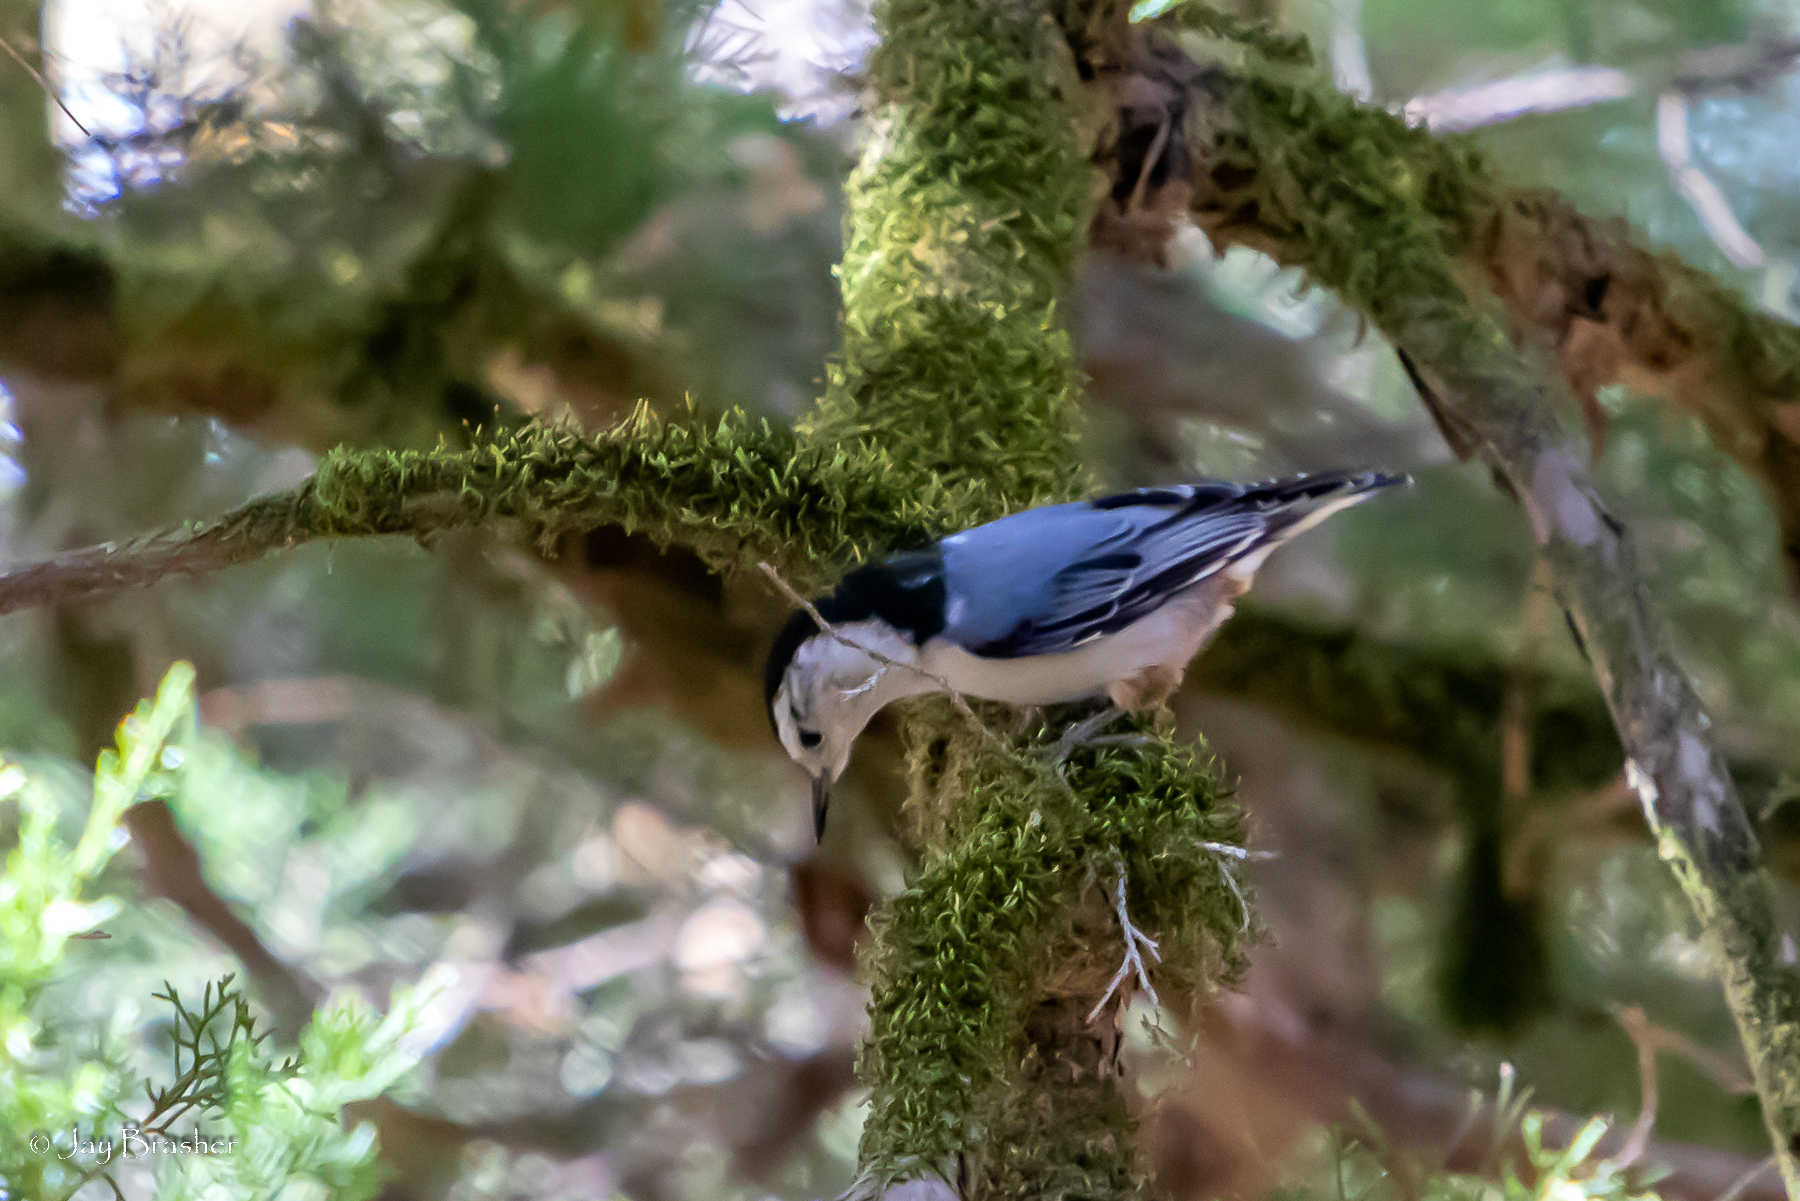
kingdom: Animalia
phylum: Chordata
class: Aves
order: Passeriformes
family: Sittidae
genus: Sitta
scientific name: Sitta carolinensis
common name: White-breasted nuthatch
